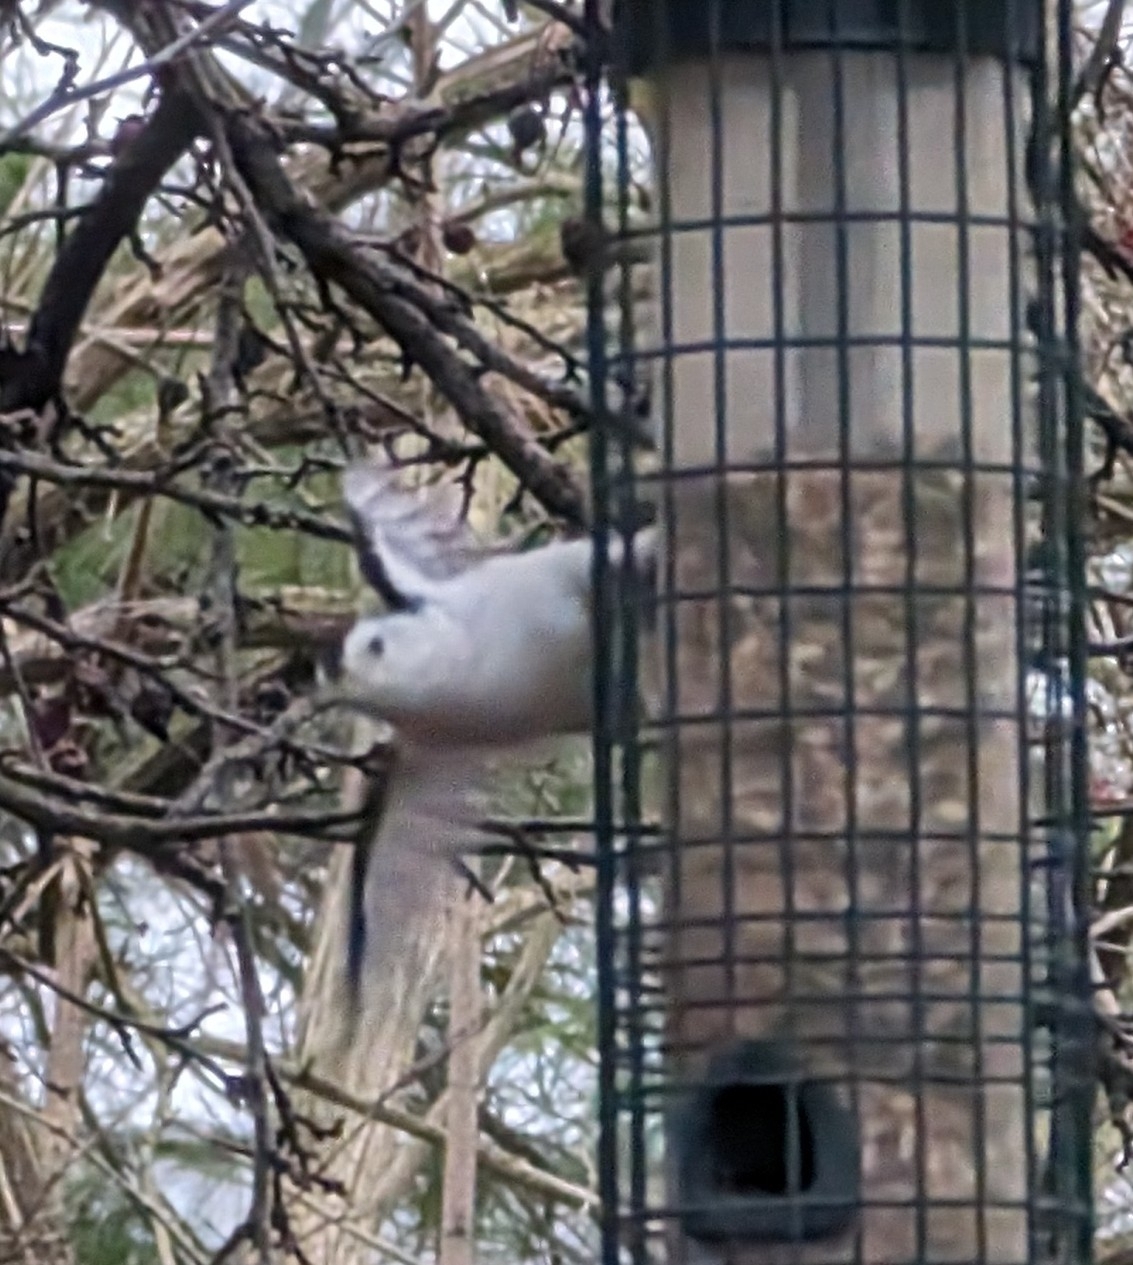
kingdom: Animalia
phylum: Chordata
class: Aves
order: Passeriformes
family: Sittidae
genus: Sitta
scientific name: Sitta carolinensis
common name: White-breasted nuthatch
